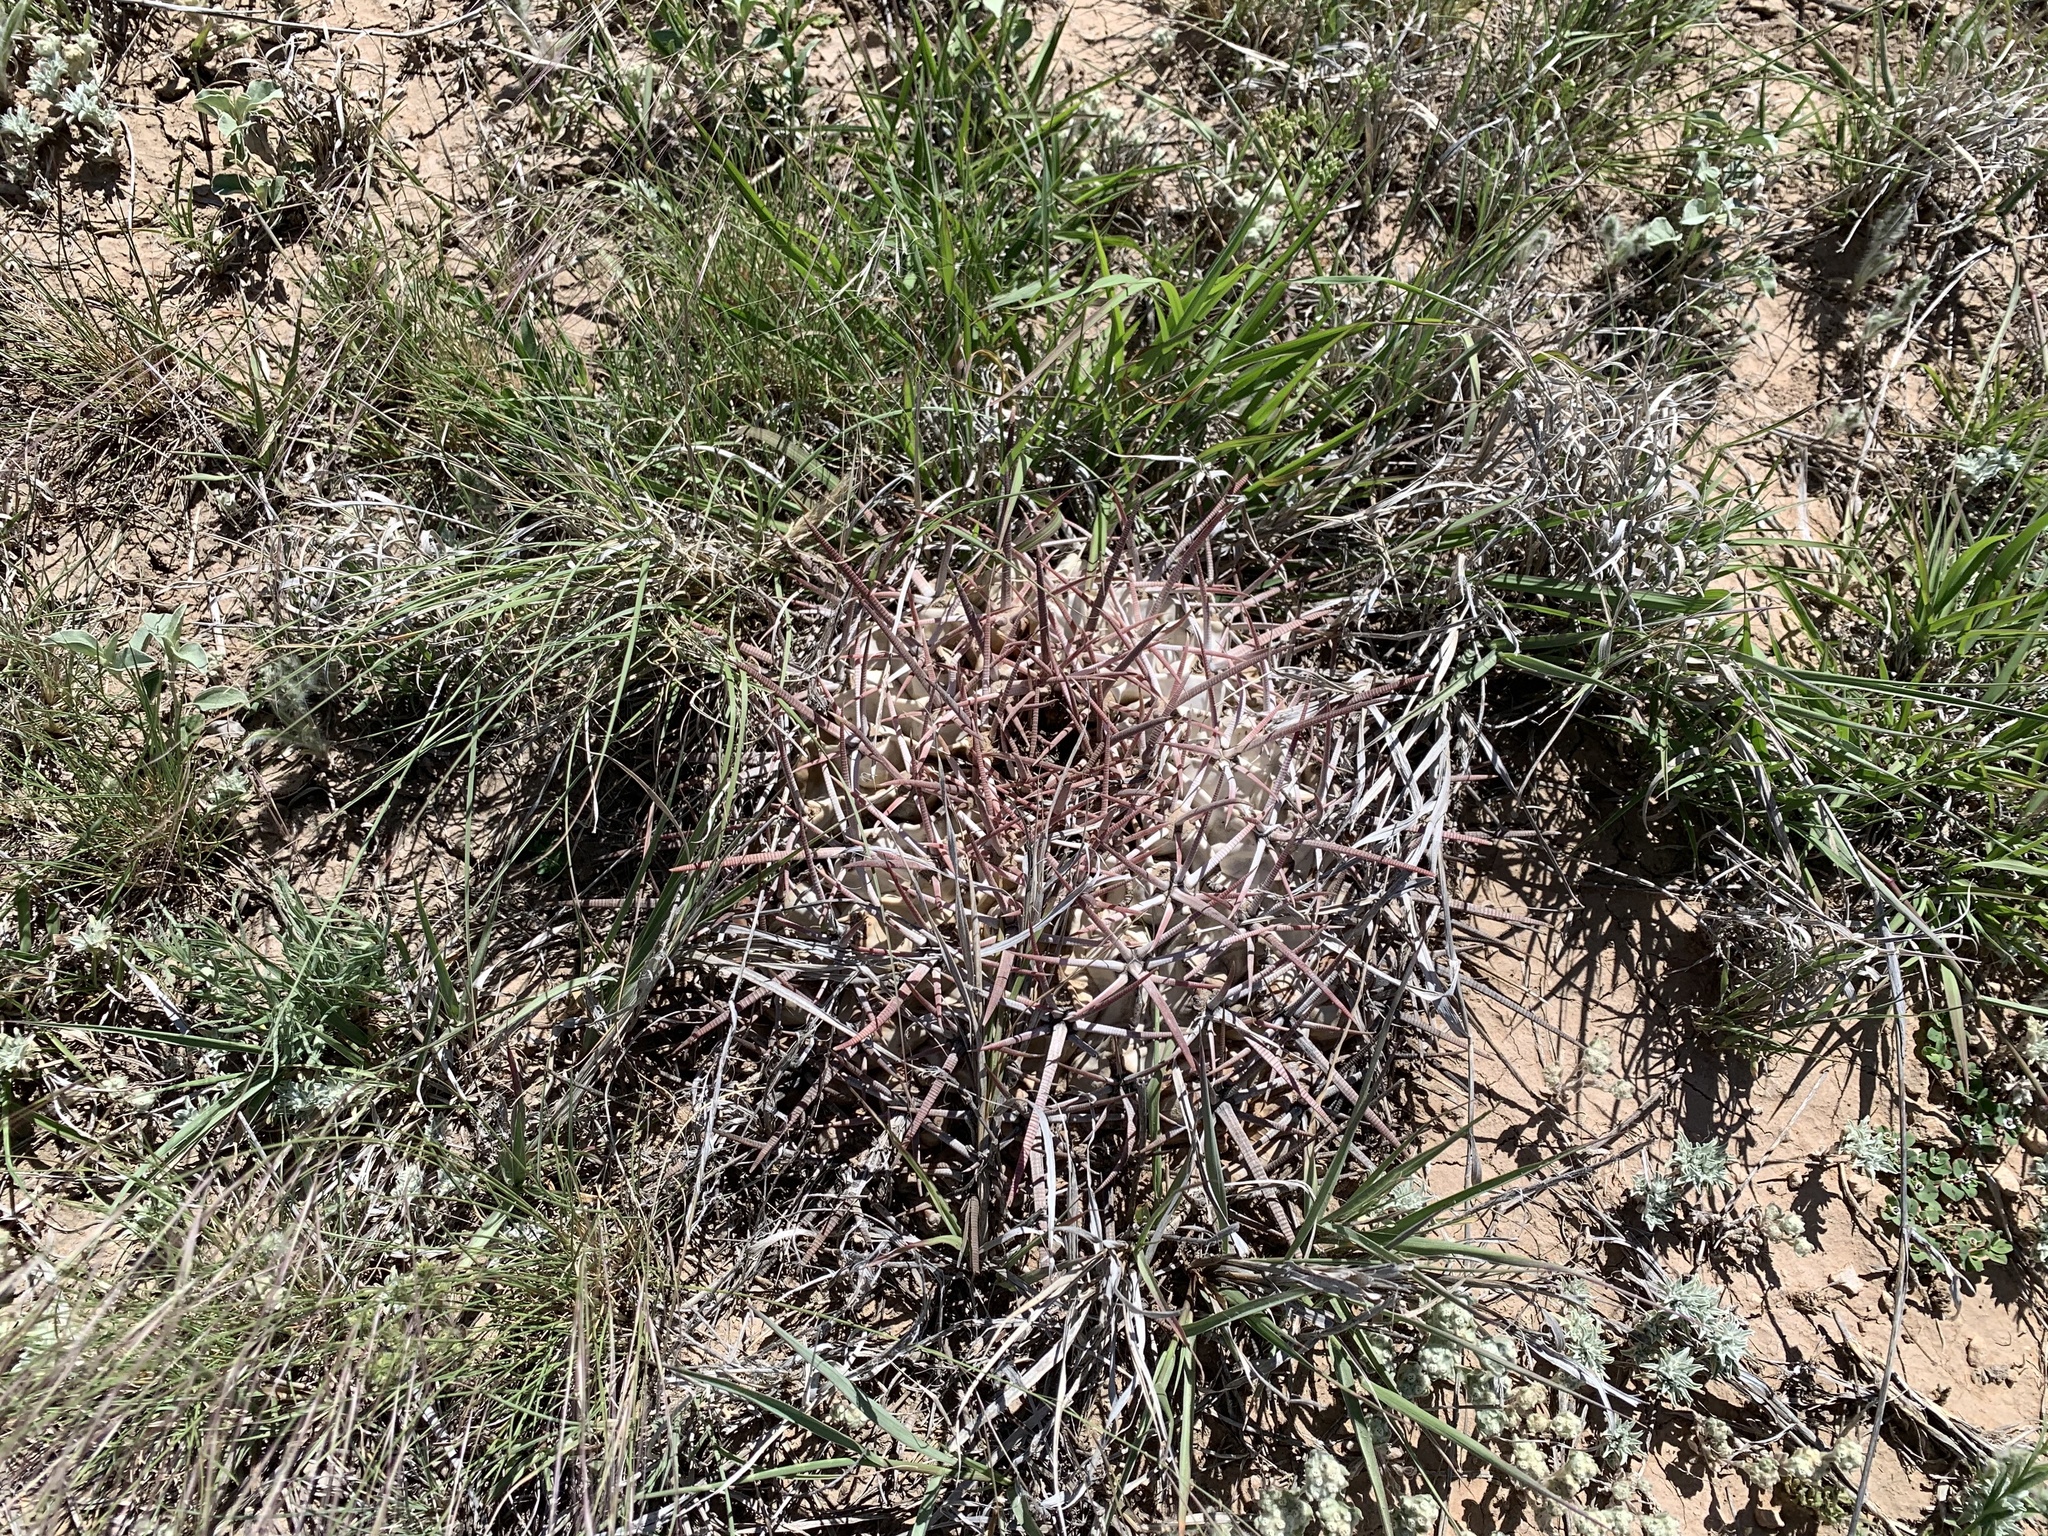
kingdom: Plantae
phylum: Tracheophyta
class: Magnoliopsida
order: Caryophyllales
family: Cactaceae
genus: Echinocactus
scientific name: Echinocactus texensis
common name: Devil's pincushion
